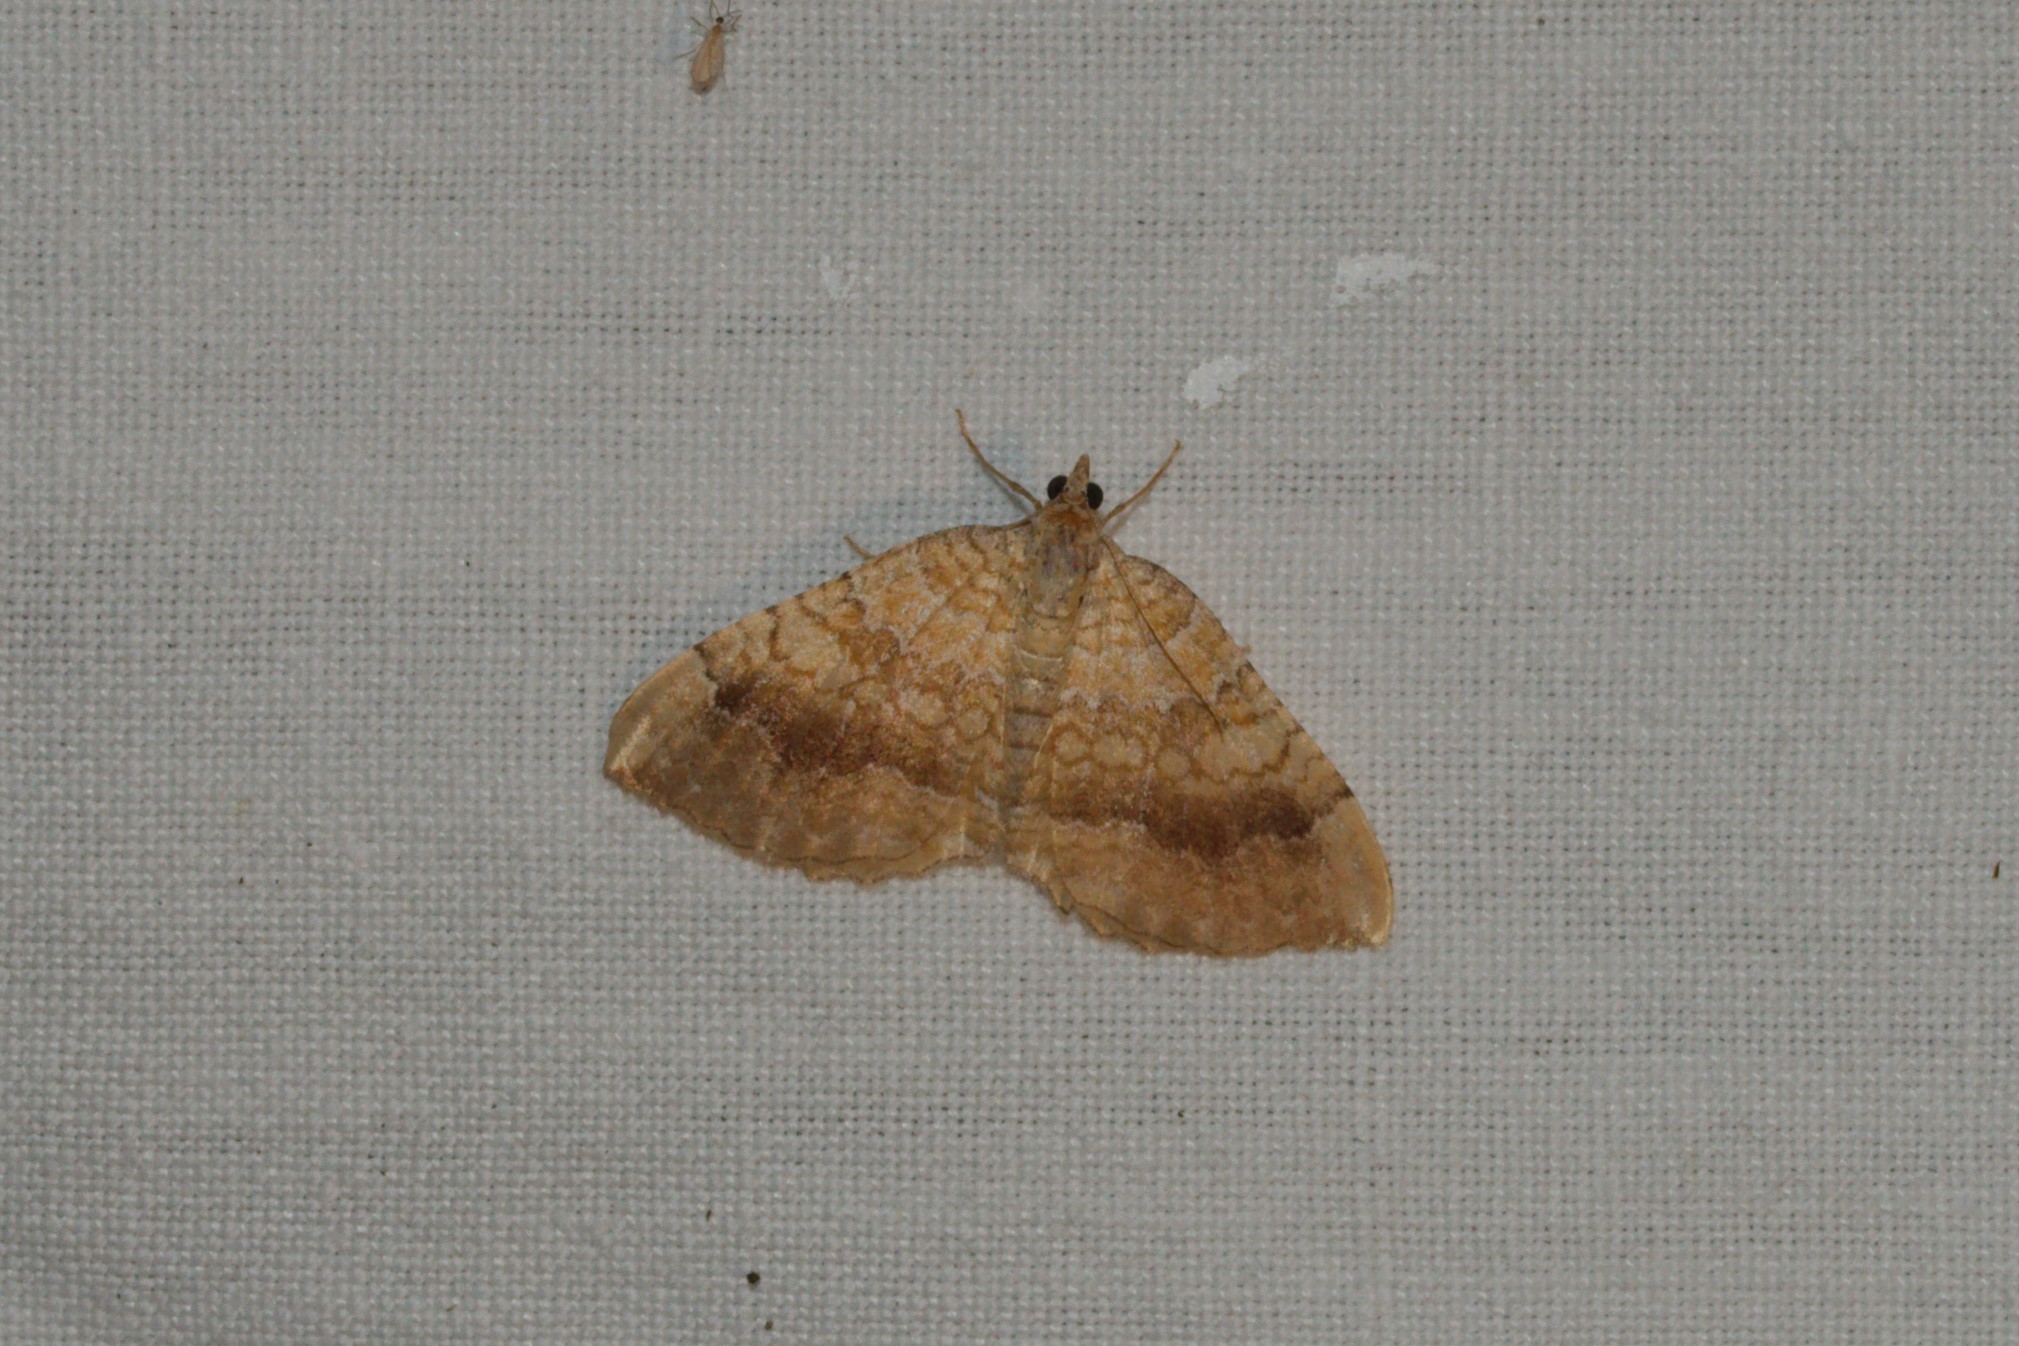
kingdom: Animalia
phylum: Arthropoda
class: Insecta
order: Lepidoptera
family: Geometridae
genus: Camptogramma
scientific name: Camptogramma bilineata
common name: Yellow shell
